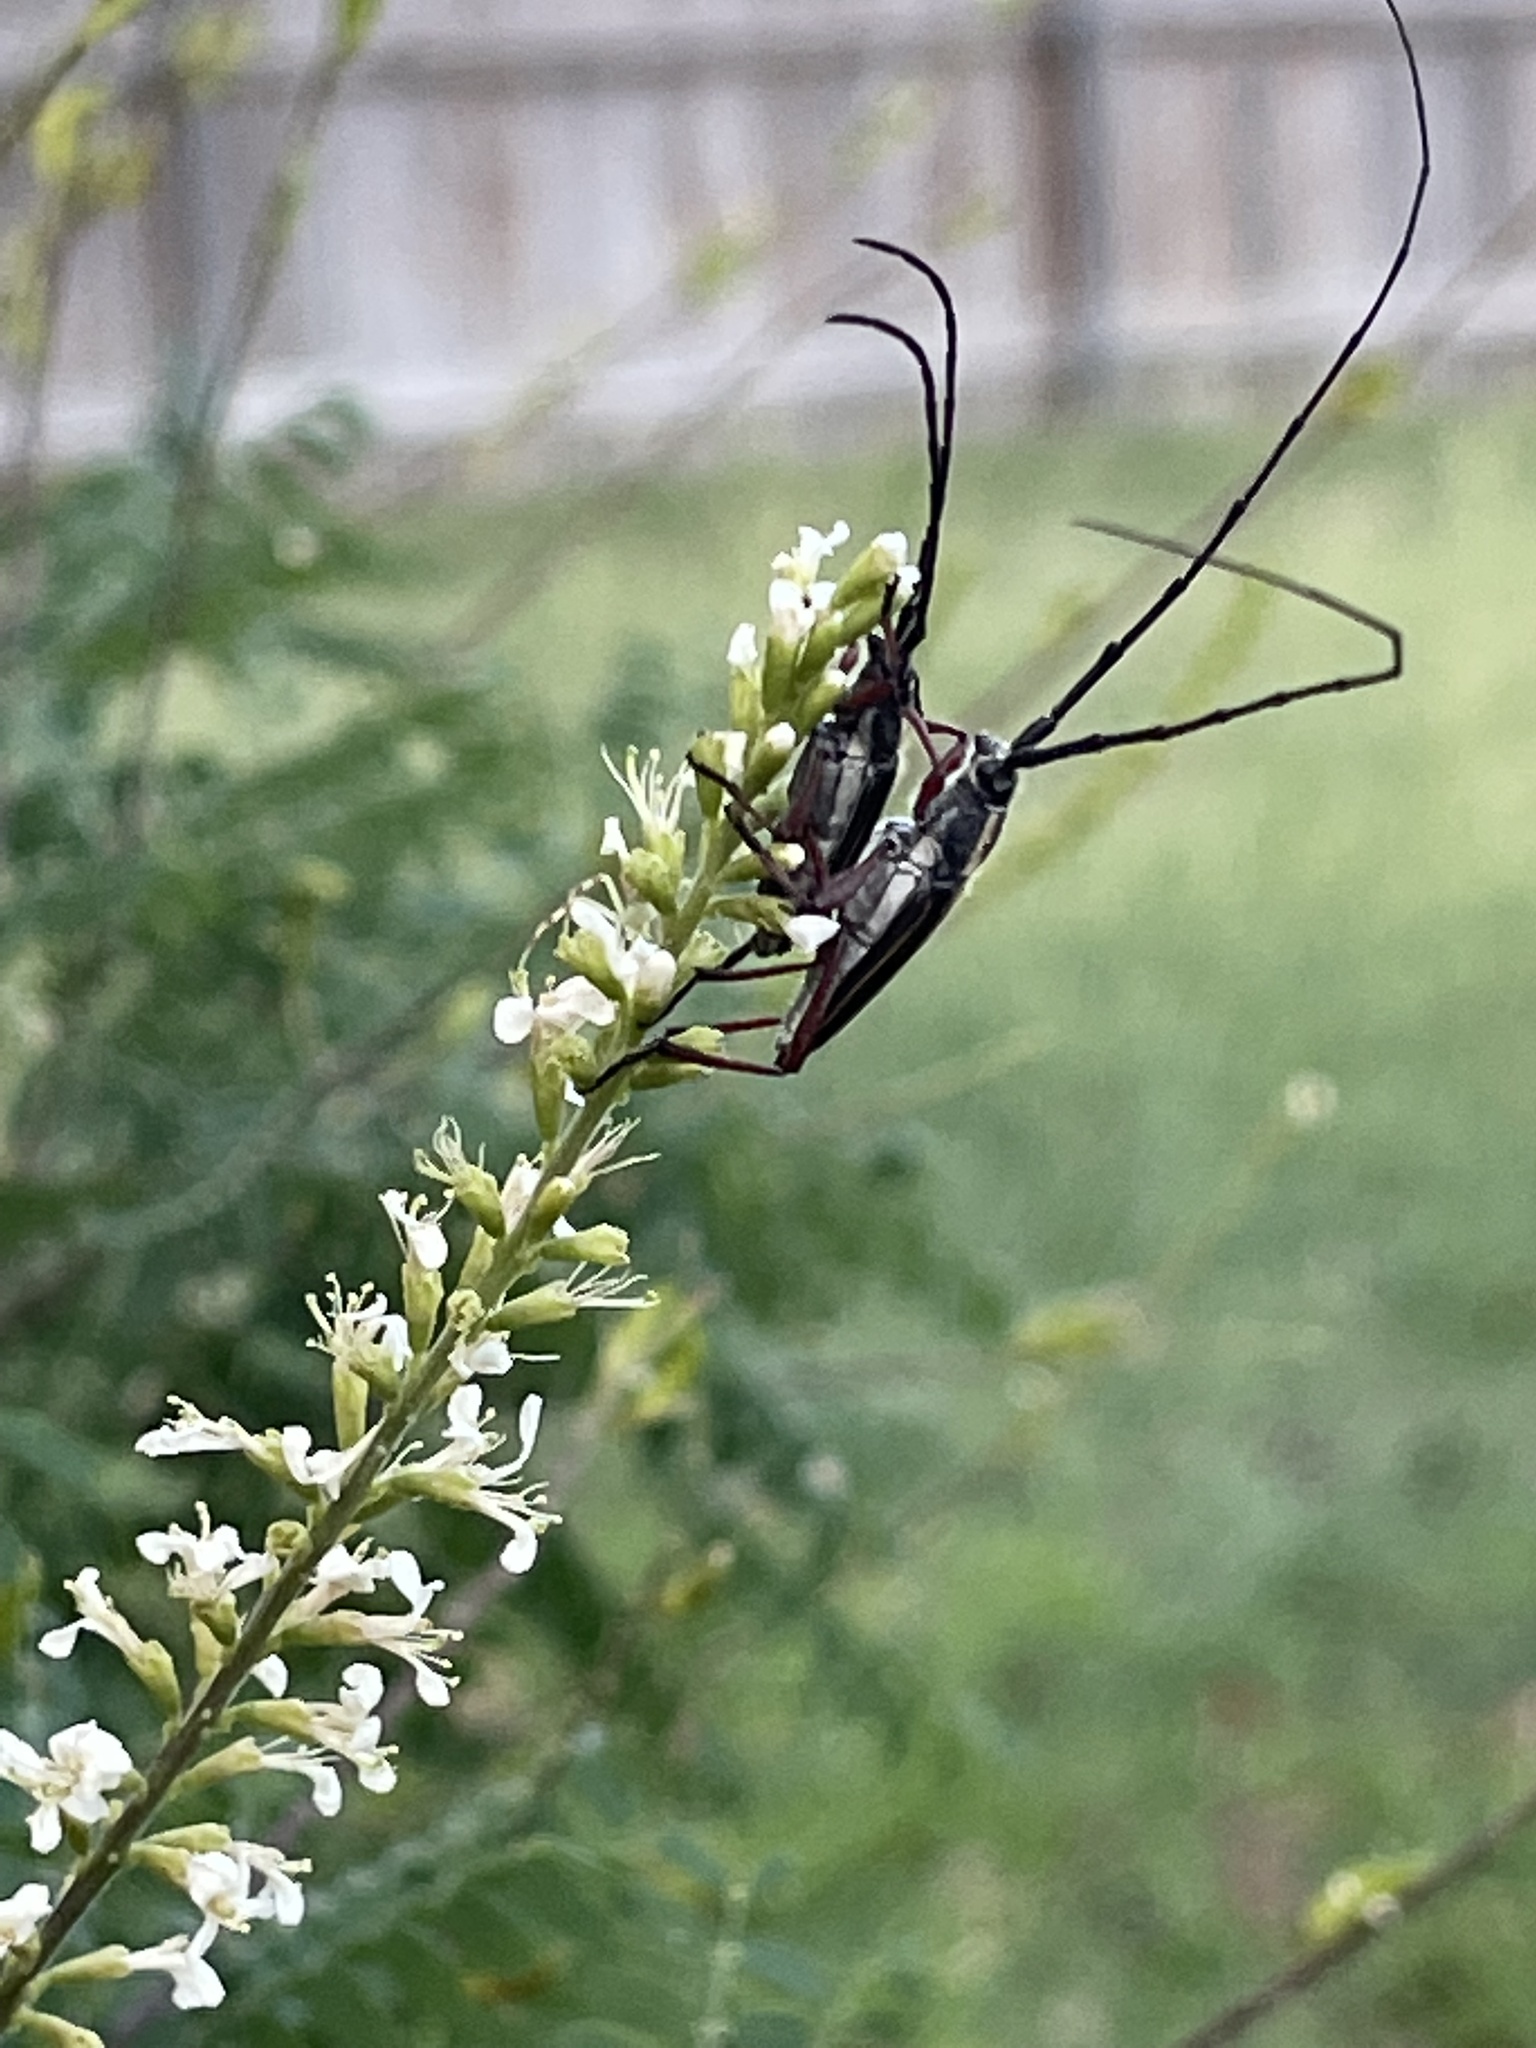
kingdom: Animalia
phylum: Arthropoda
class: Insecta
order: Coleoptera
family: Cerambycidae
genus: Sphaenothecus
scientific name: Sphaenothecus bilineatus
